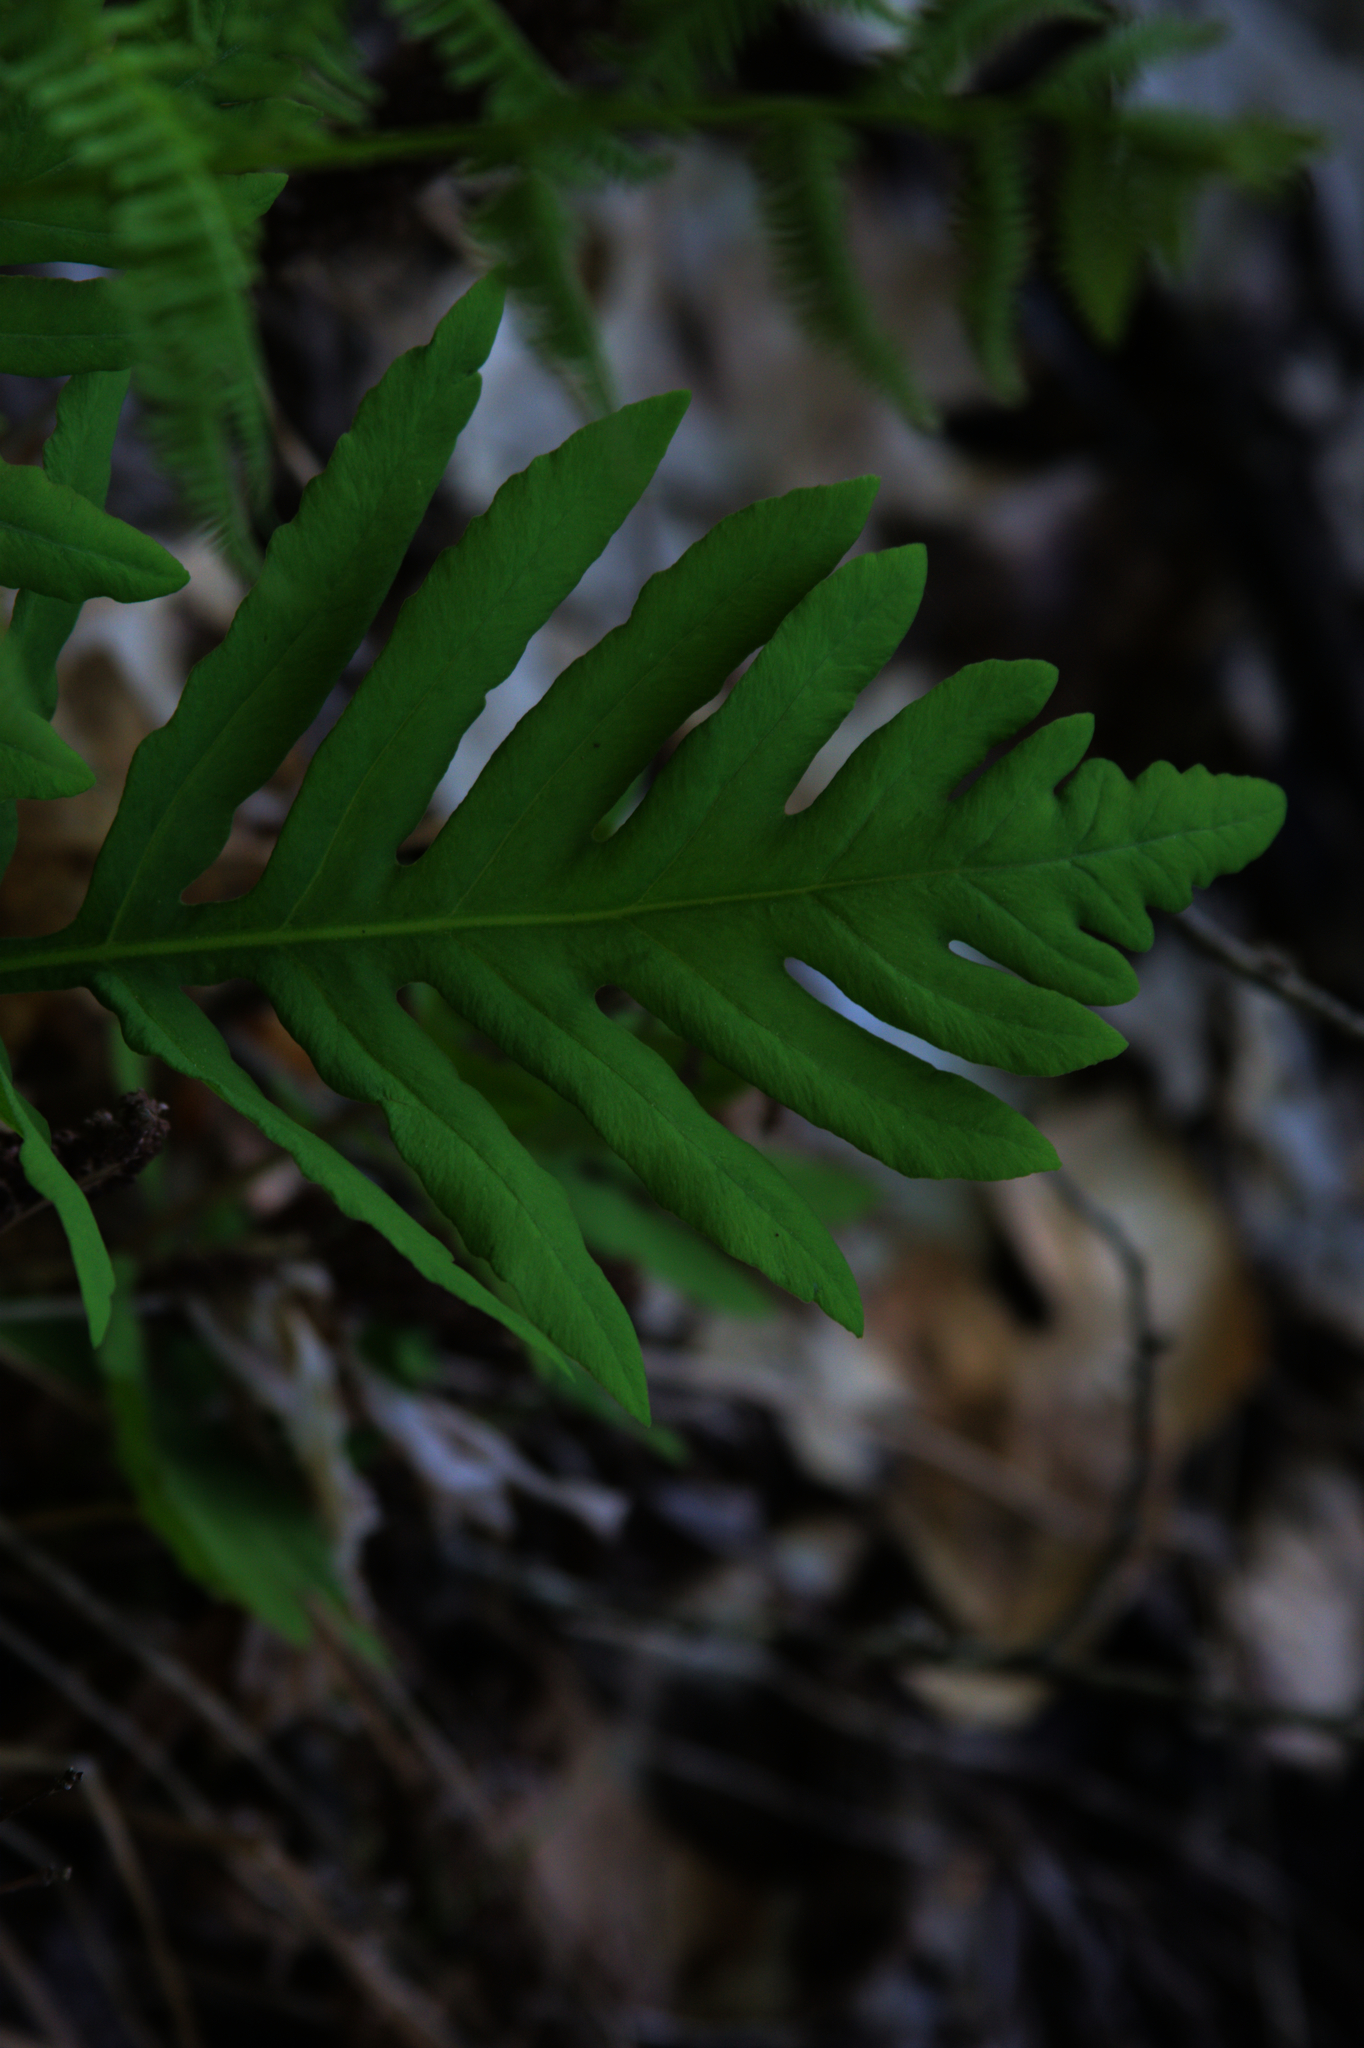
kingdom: Plantae
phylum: Tracheophyta
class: Polypodiopsida
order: Polypodiales
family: Onocleaceae
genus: Onoclea
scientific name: Onoclea sensibilis
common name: Sensitive fern
